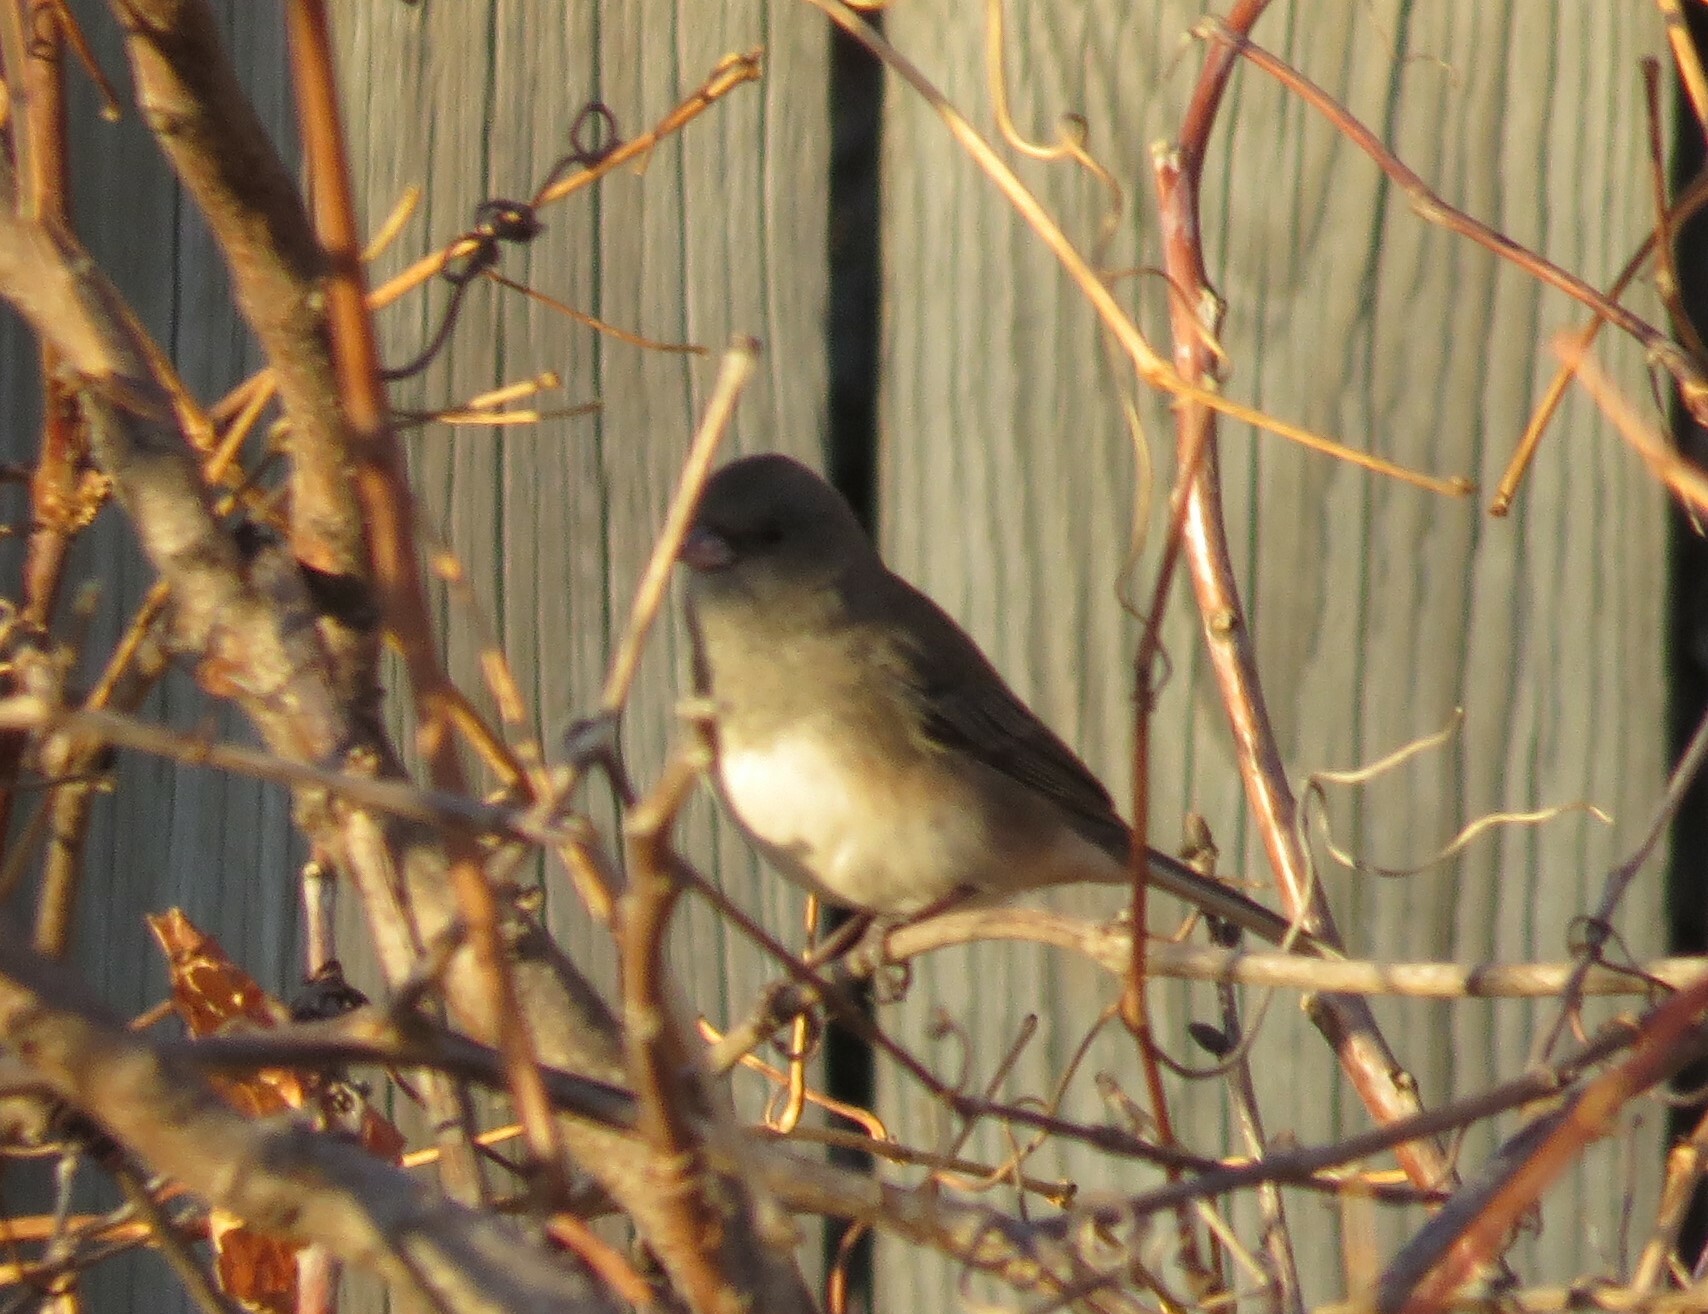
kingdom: Animalia
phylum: Chordata
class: Aves
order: Passeriformes
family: Passerellidae
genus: Junco
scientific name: Junco hyemalis
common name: Dark-eyed junco
